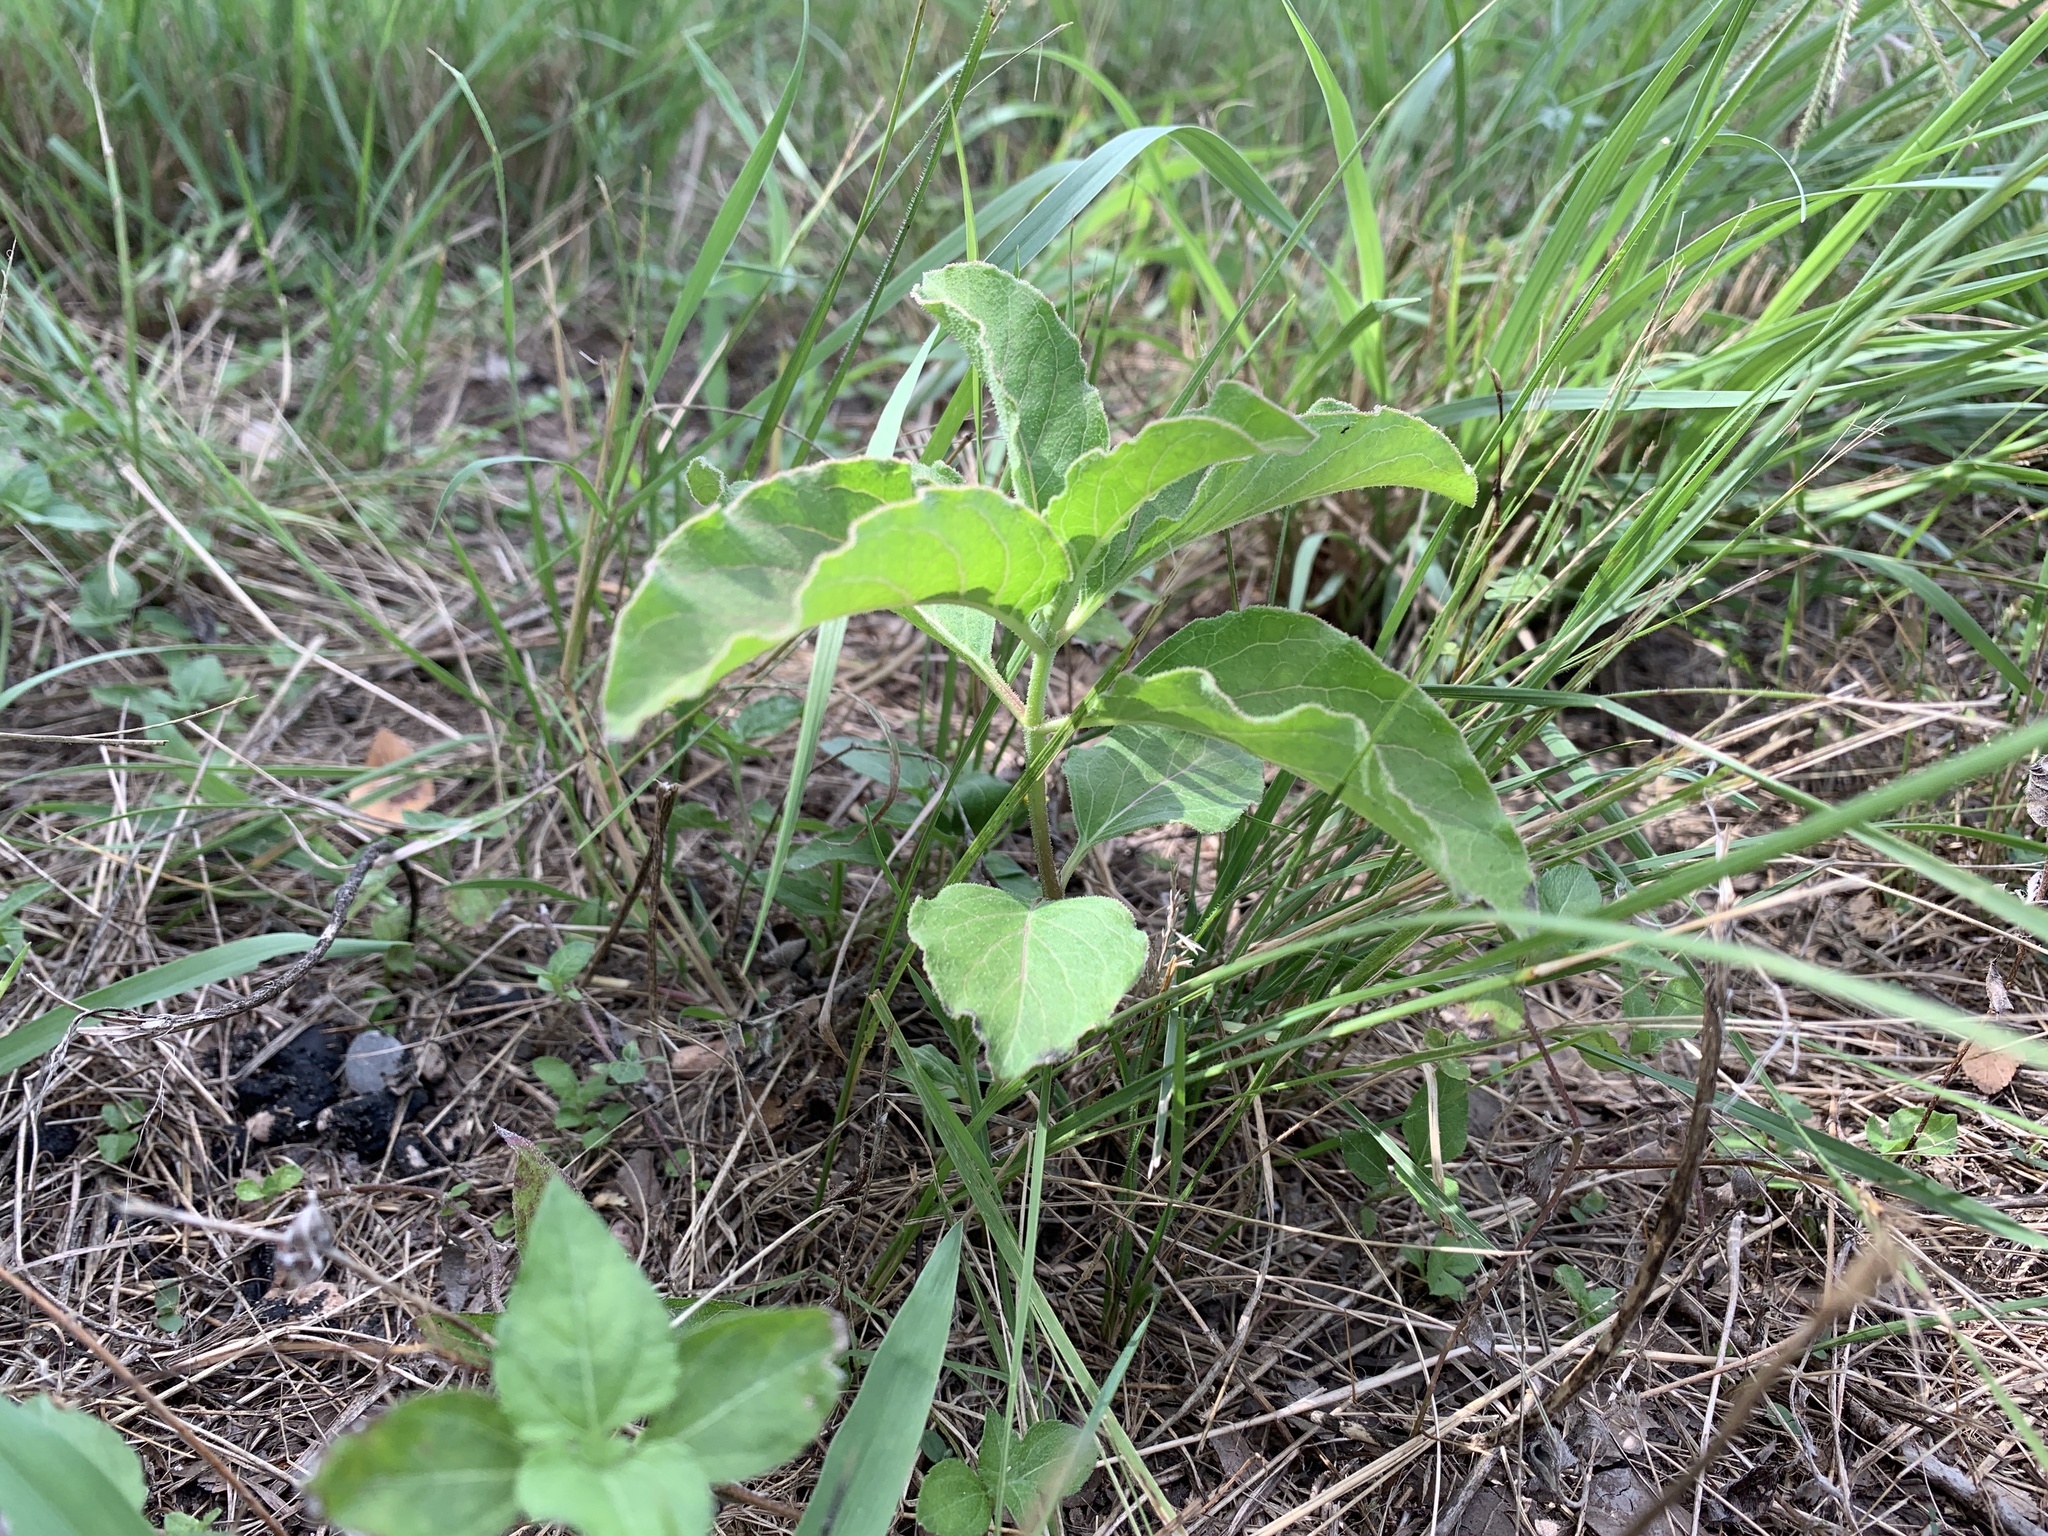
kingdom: Plantae
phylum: Tracheophyta
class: Magnoliopsida
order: Gentianales
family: Apocynaceae
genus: Asclepias
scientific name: Asclepias oenotheroides
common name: Zizotes milkweed
